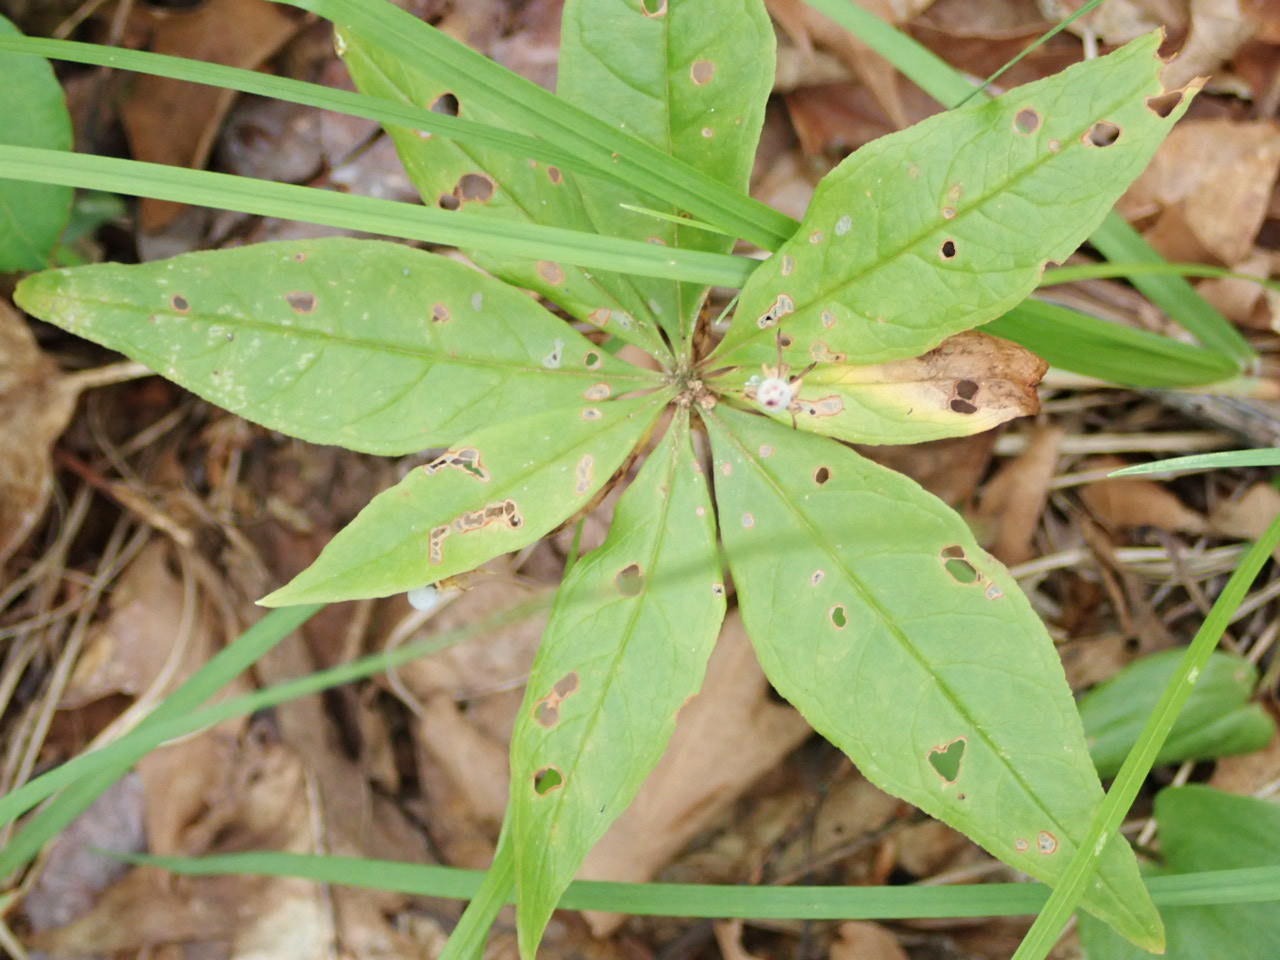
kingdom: Plantae
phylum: Tracheophyta
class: Magnoliopsida
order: Ericales
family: Primulaceae
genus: Lysimachia
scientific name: Lysimachia borealis
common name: American starflower
